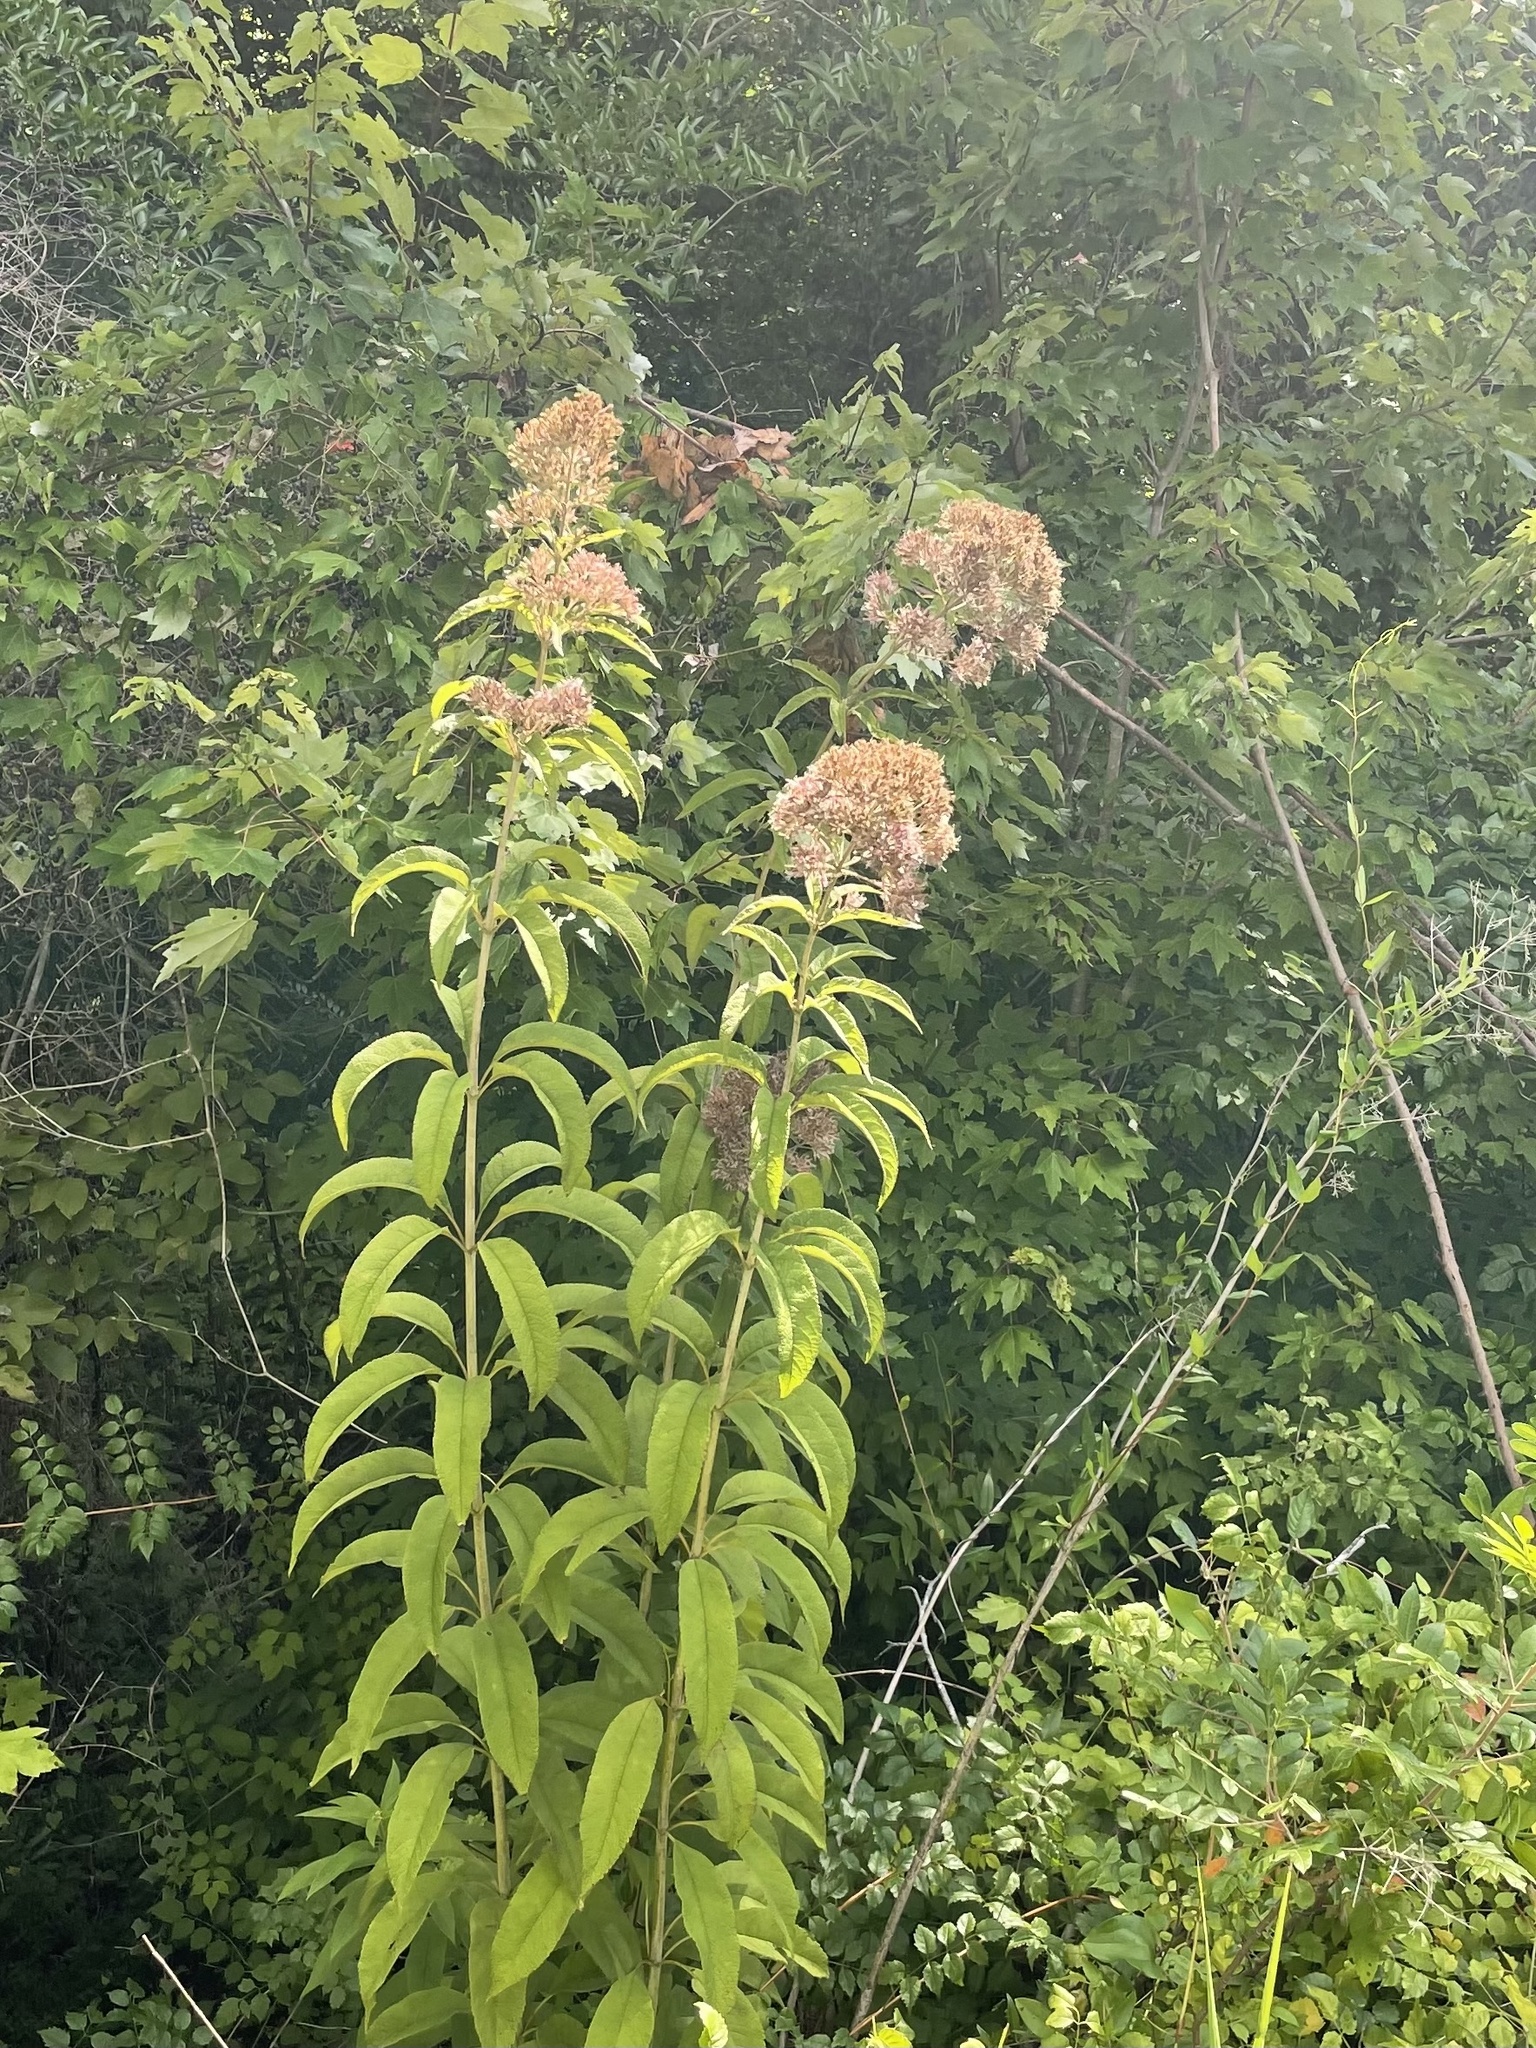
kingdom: Plantae
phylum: Tracheophyta
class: Magnoliopsida
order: Asterales
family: Asteraceae
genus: Eutrochium
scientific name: Eutrochium fistulosum
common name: Trumpetweed
